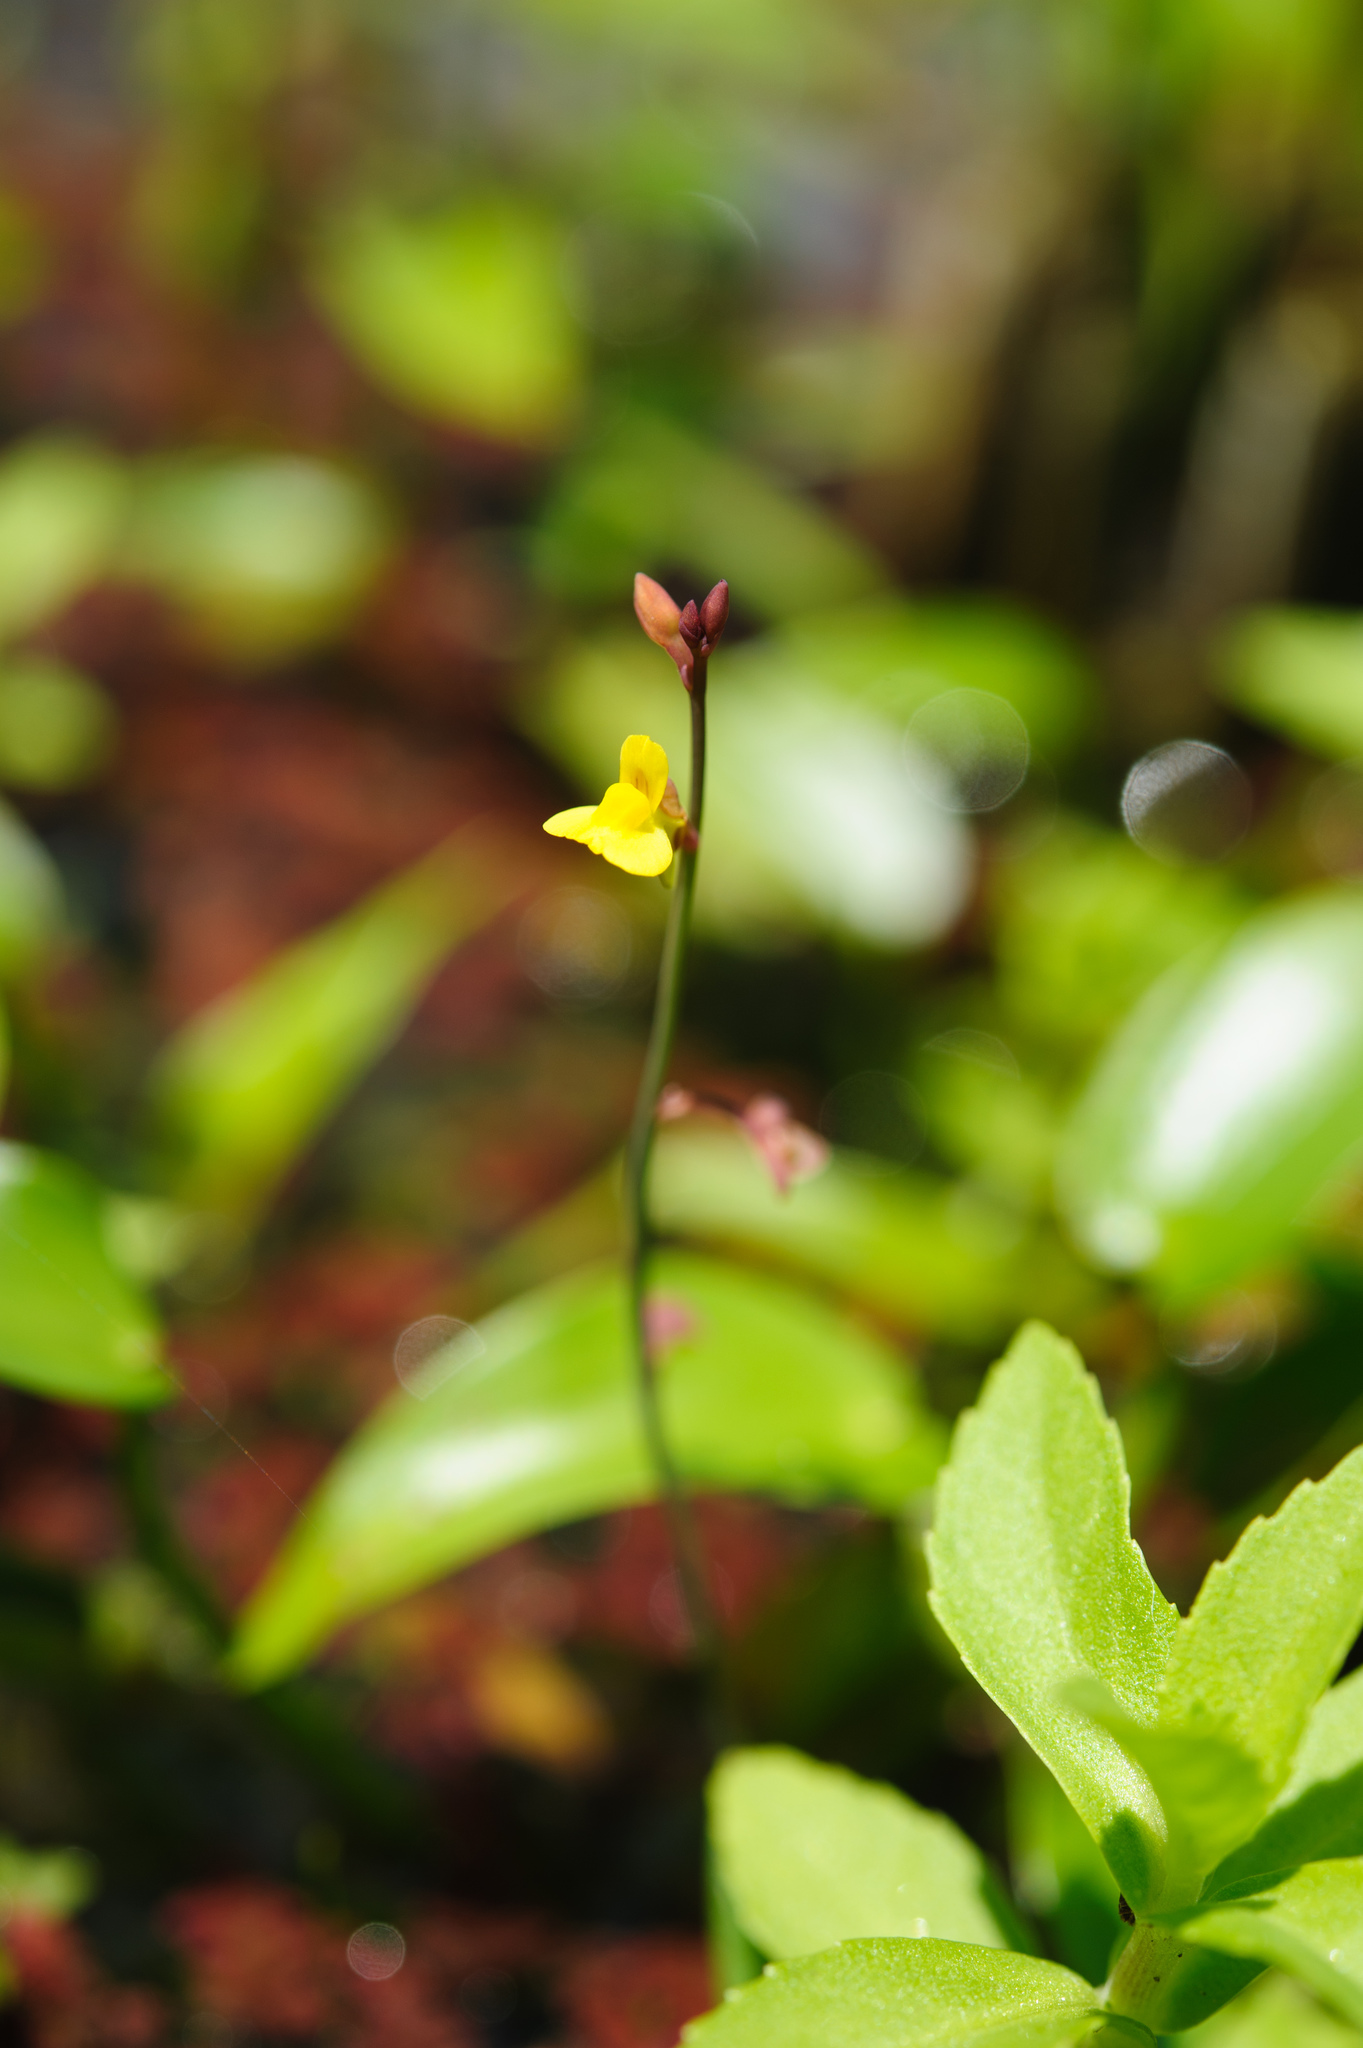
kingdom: Plantae
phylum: Tracheophyta
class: Magnoliopsida
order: Lamiales
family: Lentibulariaceae
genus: Utricularia
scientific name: Utricularia bifida
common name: Bifid bladderwort
